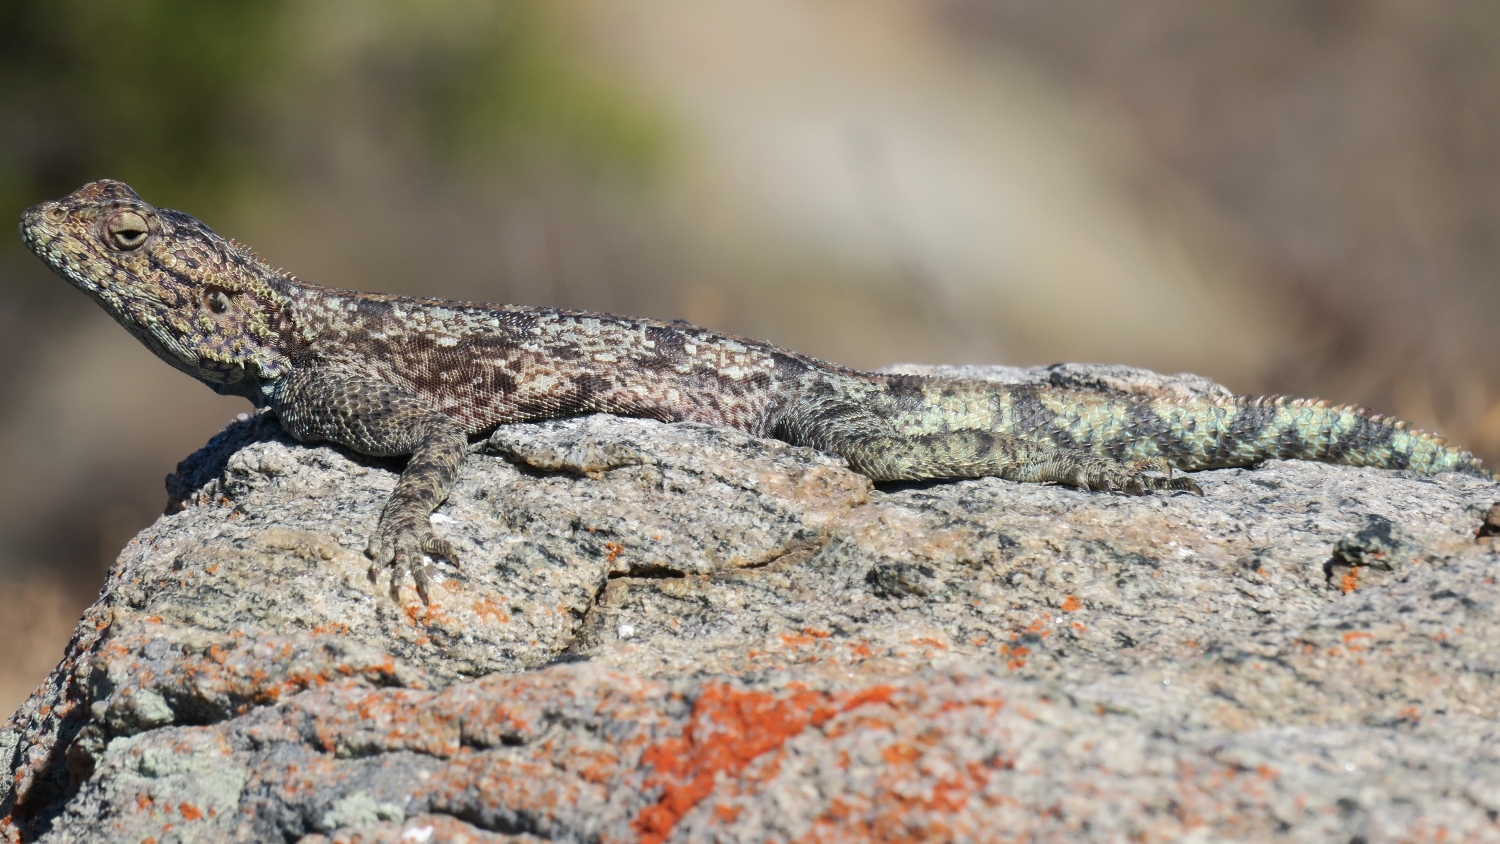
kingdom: Animalia
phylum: Chordata
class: Squamata
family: Agamidae
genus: Agama
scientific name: Agama atra
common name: Southern african rock agama
